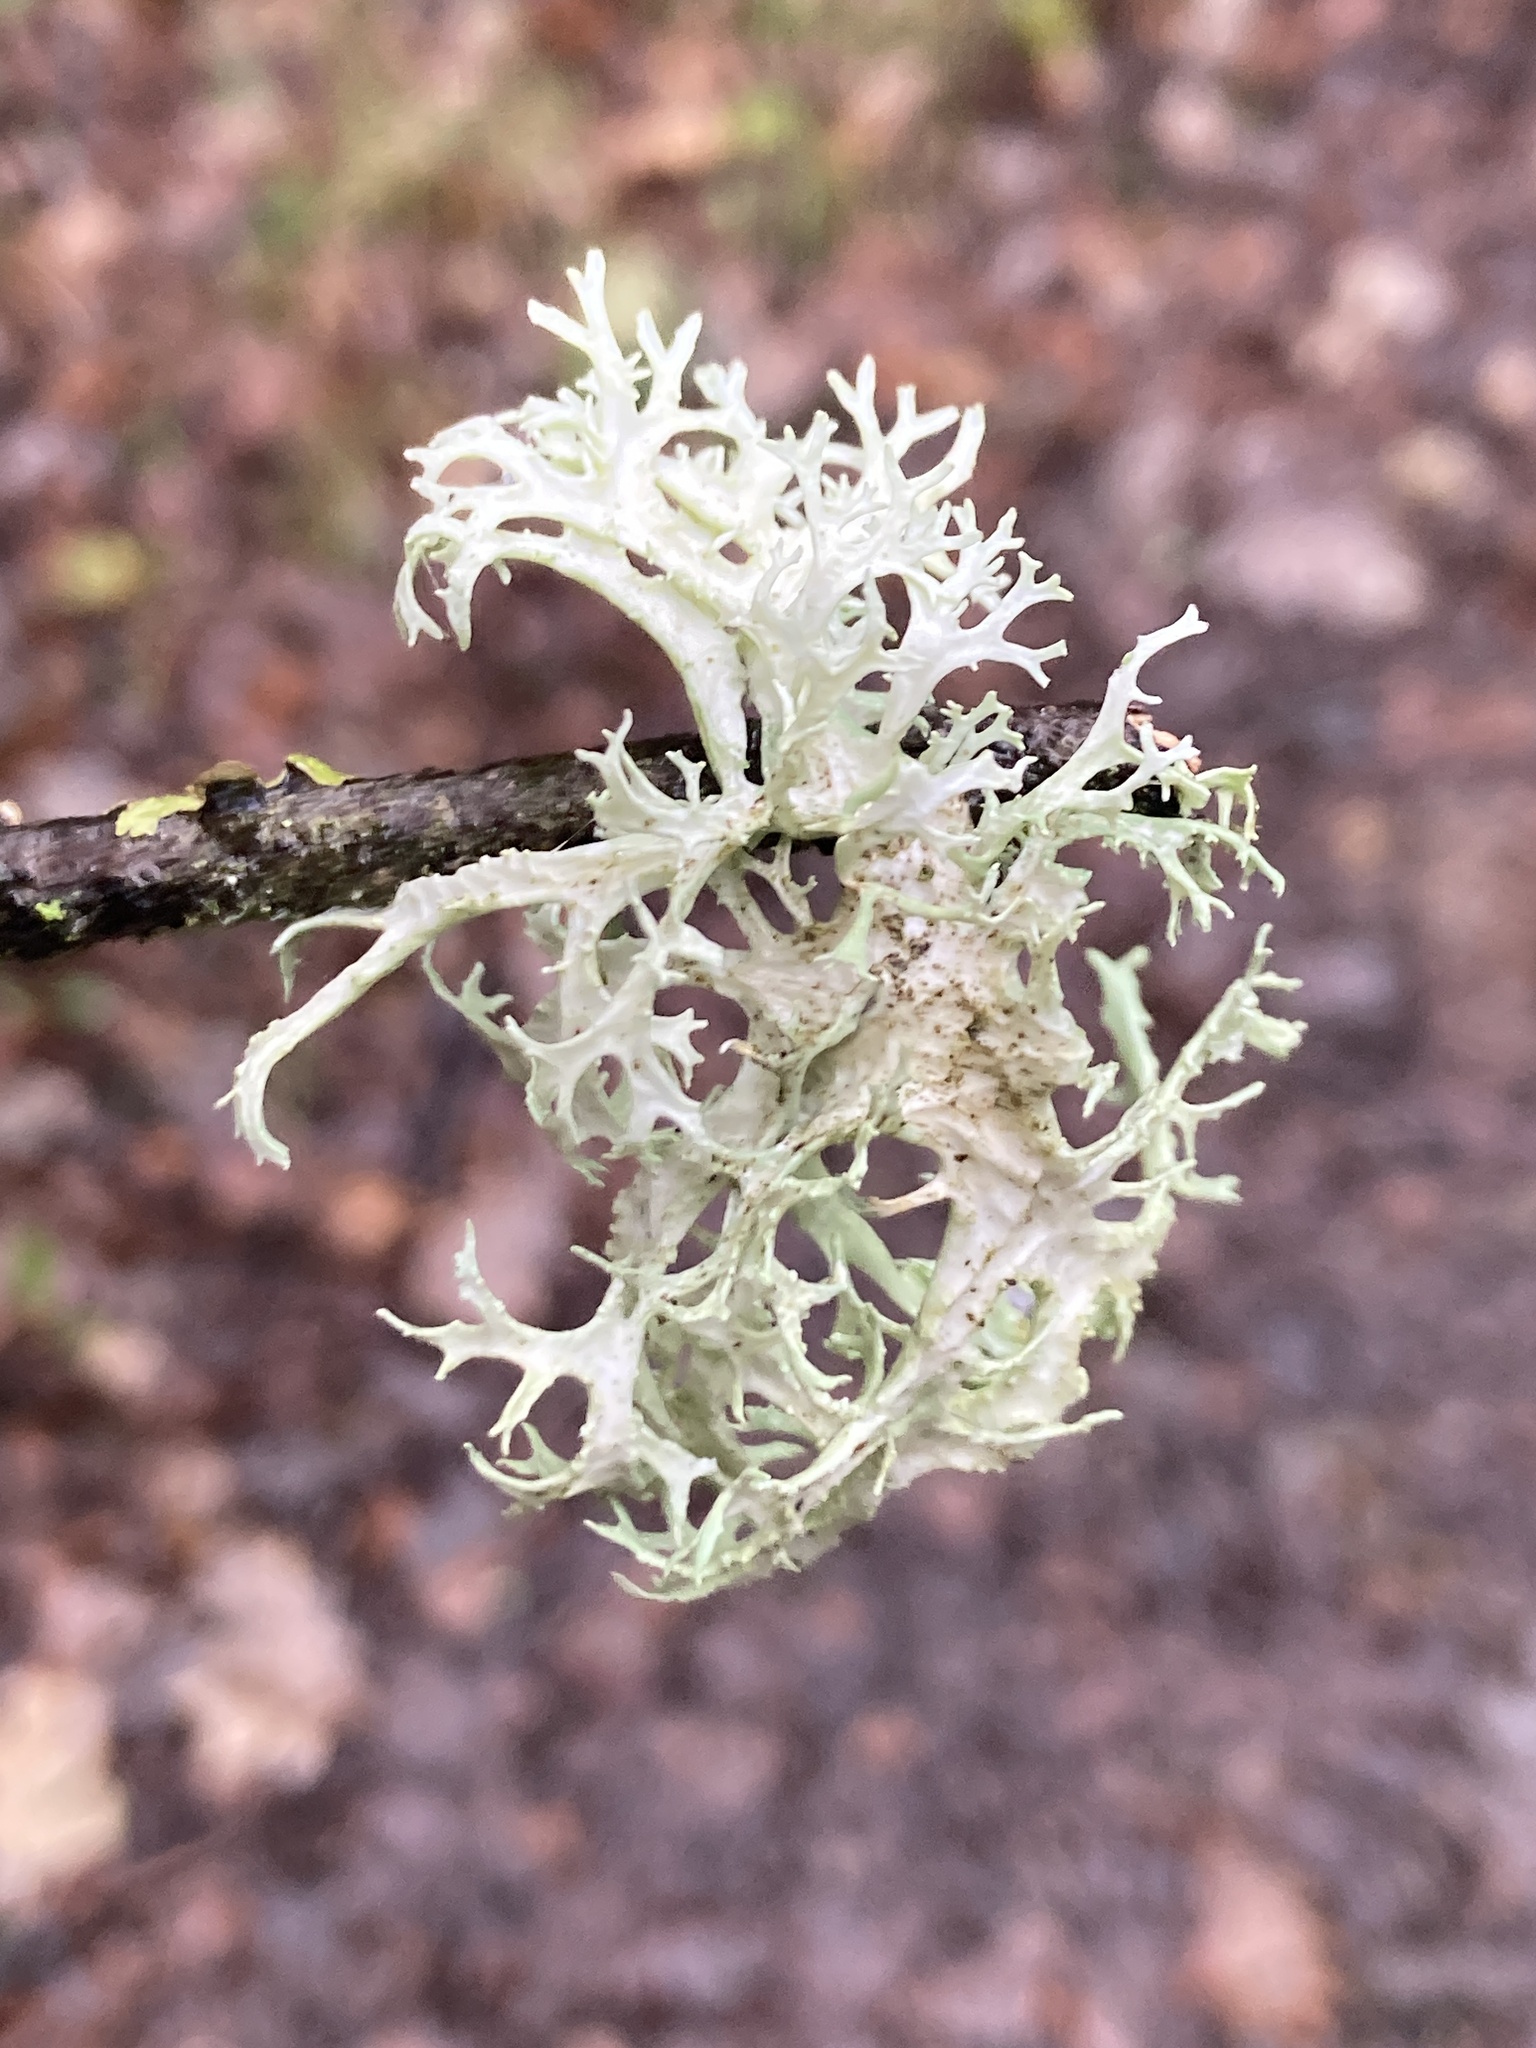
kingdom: Fungi
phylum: Ascomycota
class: Lecanoromycetes
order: Lecanorales
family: Parmeliaceae
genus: Evernia
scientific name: Evernia prunastri
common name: Oak moss
